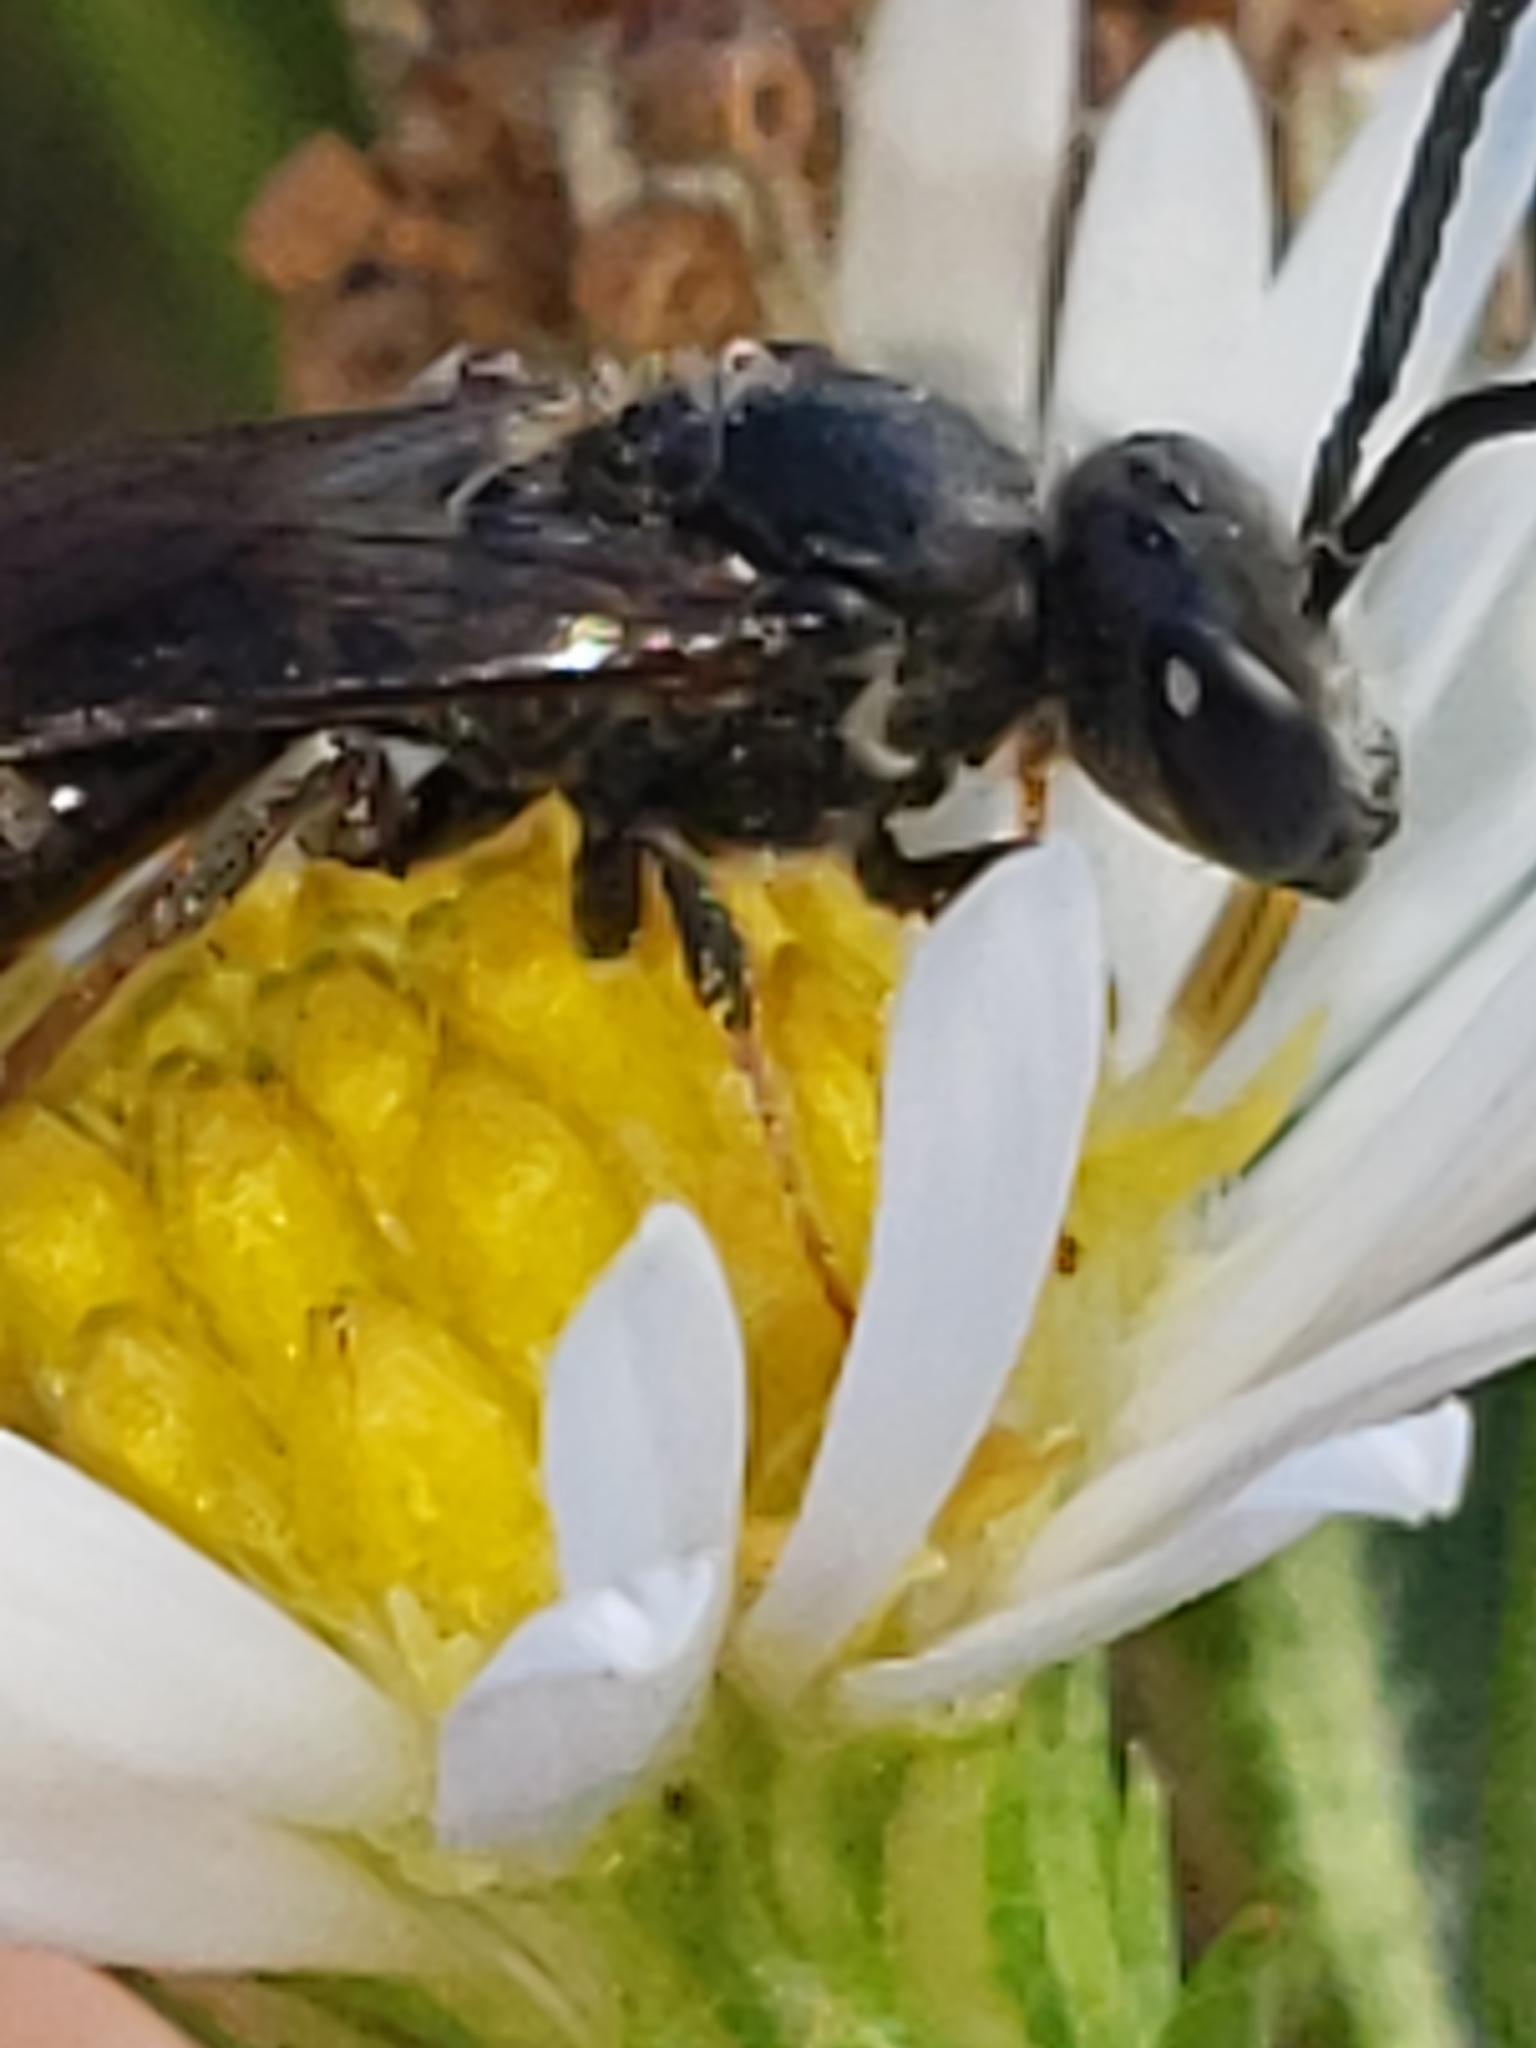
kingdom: Animalia
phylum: Arthropoda
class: Insecta
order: Hymenoptera
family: Halictidae
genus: Lasioglossum
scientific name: Lasioglossum fuscipenne
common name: Brown-winged sweat bee
